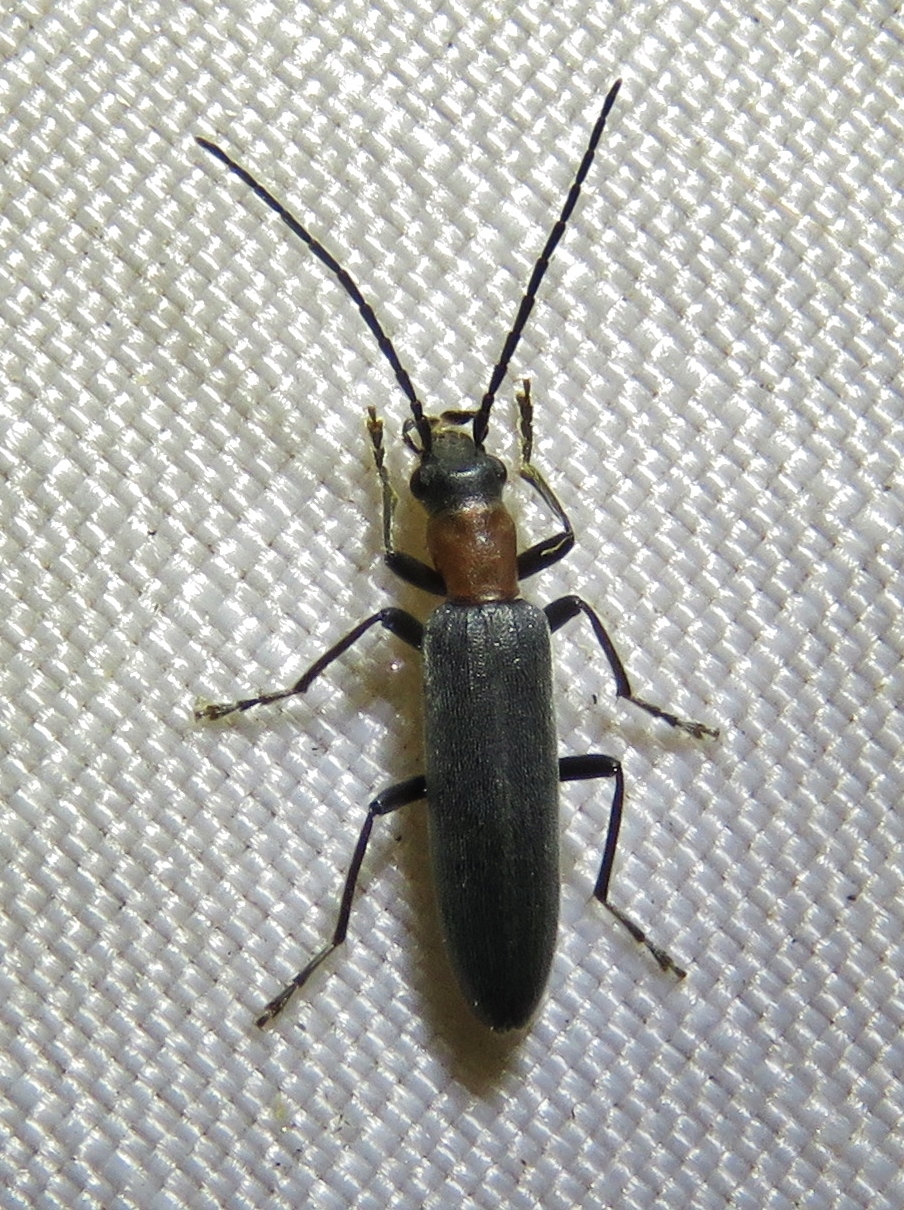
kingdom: Animalia
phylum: Arthropoda
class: Insecta
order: Coleoptera
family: Oedemeridae
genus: Oxycopis
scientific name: Oxycopis thoracica
